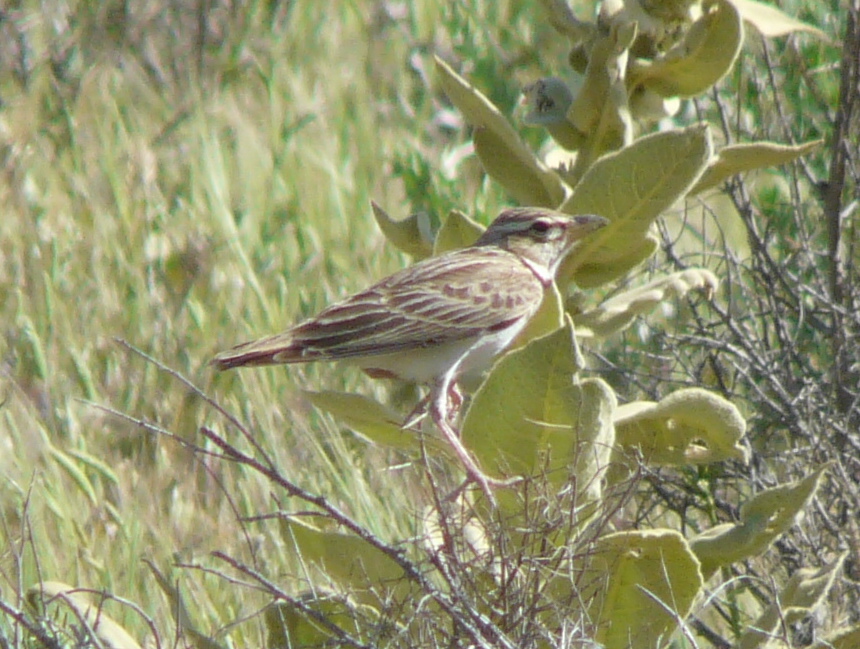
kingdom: Animalia
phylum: Chordata
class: Aves
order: Passeriformes
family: Alaudidae
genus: Melanocorypha
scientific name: Melanocorypha bimaculata
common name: Bimaculated lark
